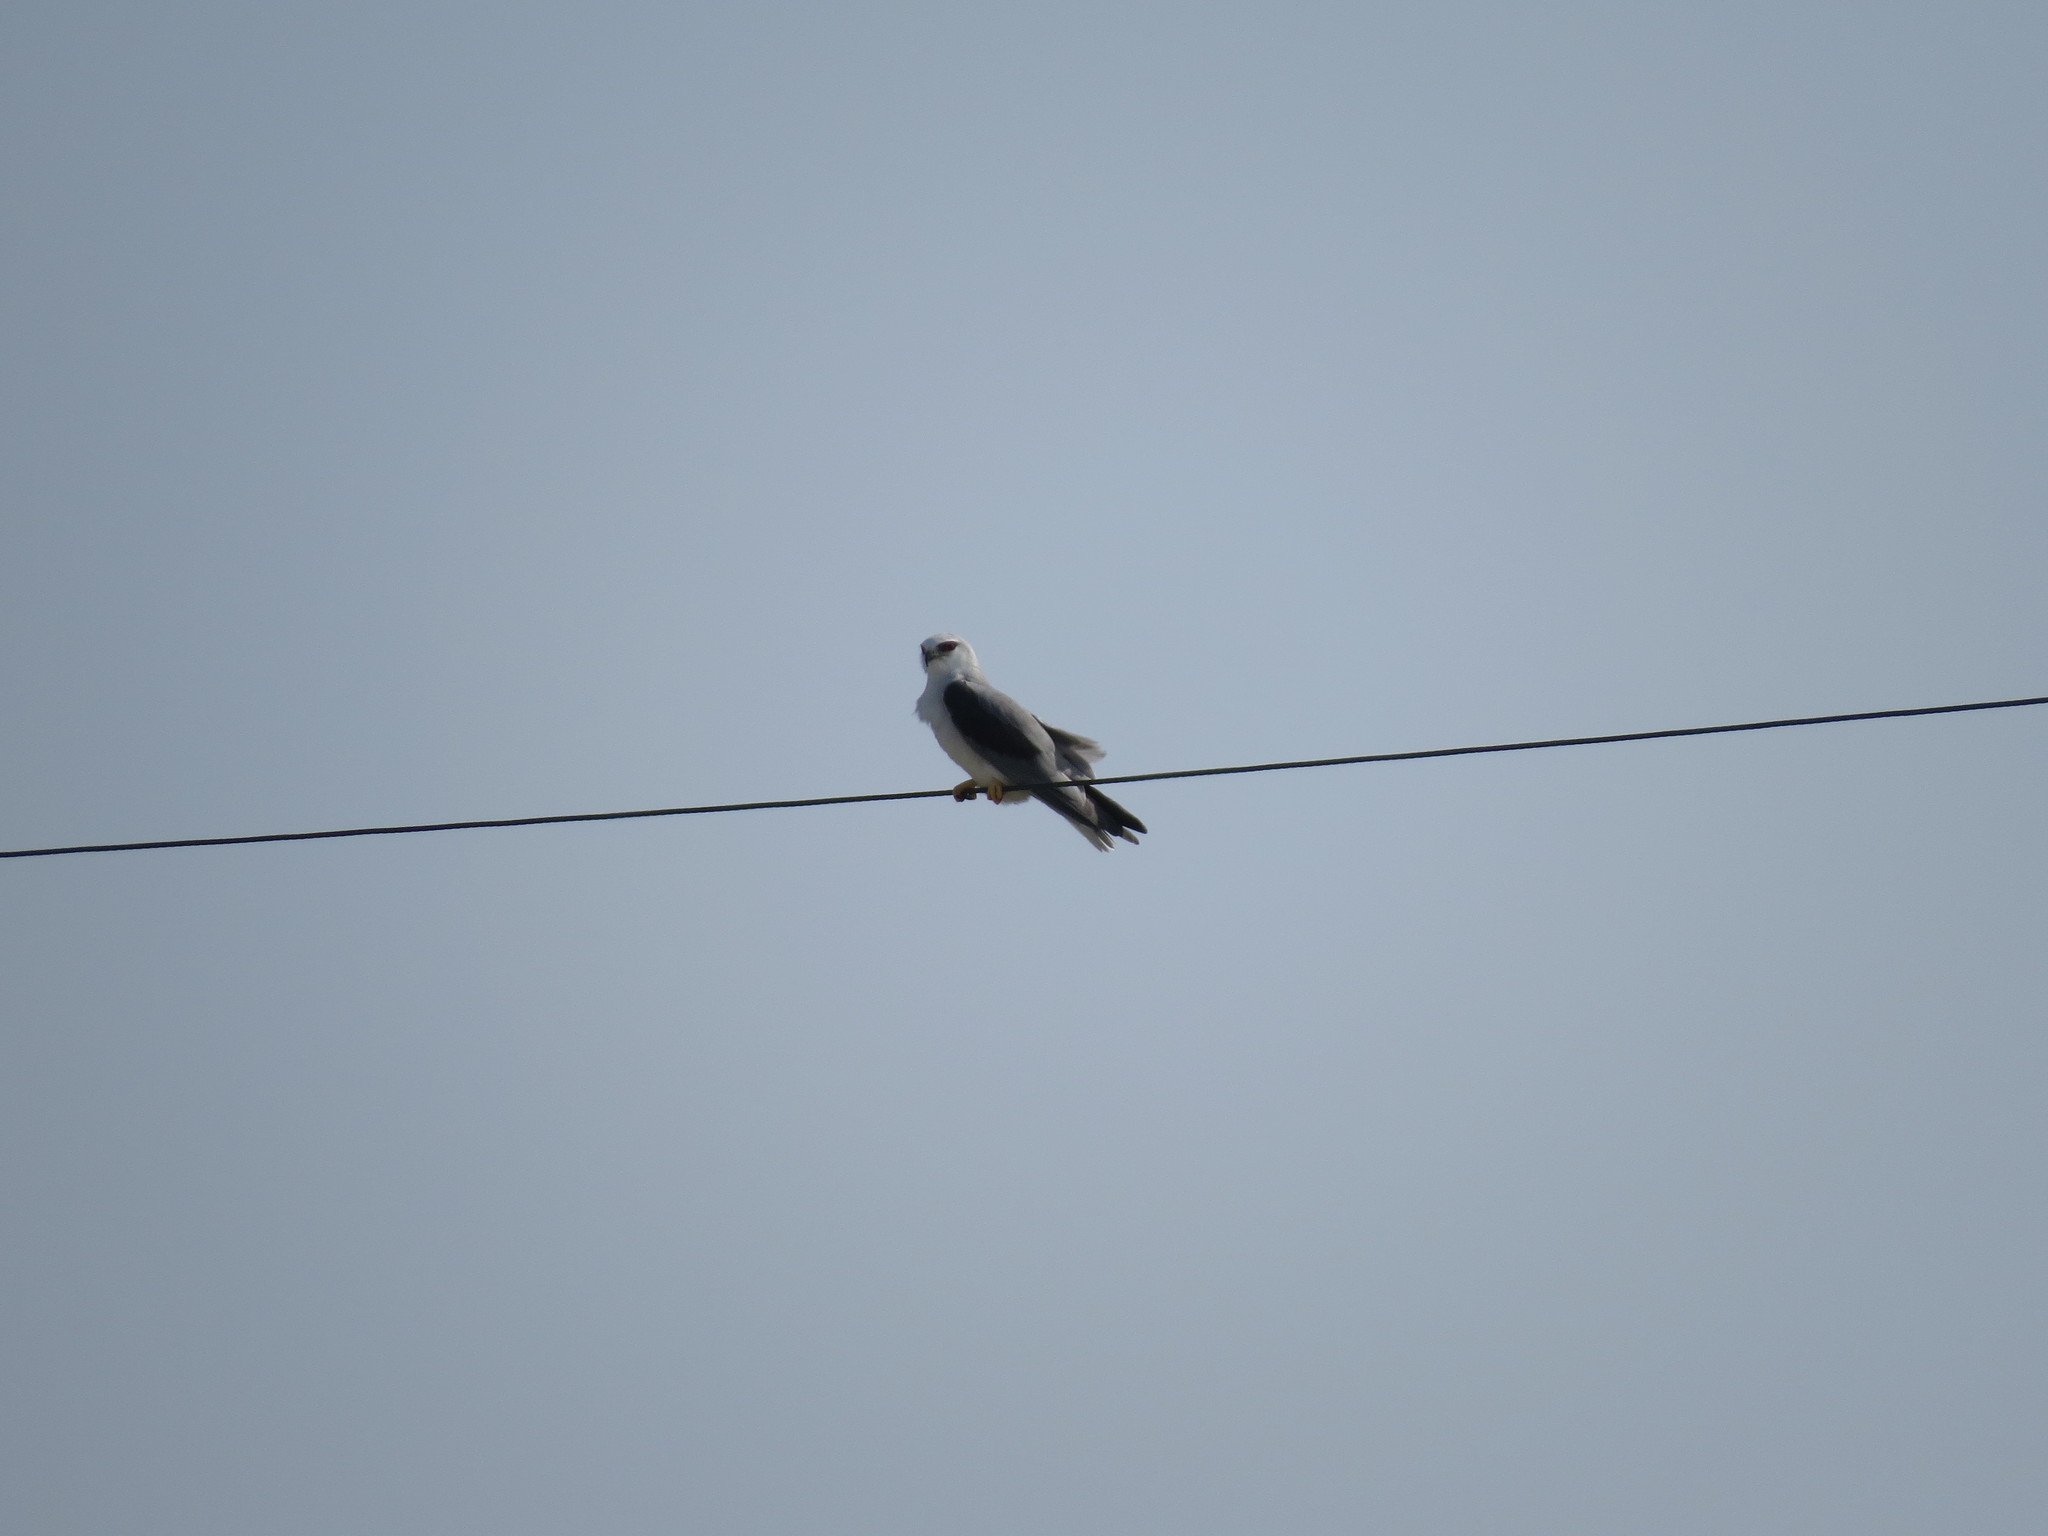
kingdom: Animalia
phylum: Chordata
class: Aves
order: Accipitriformes
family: Accipitridae
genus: Elanus
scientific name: Elanus caeruleus
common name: Black-winged kite
